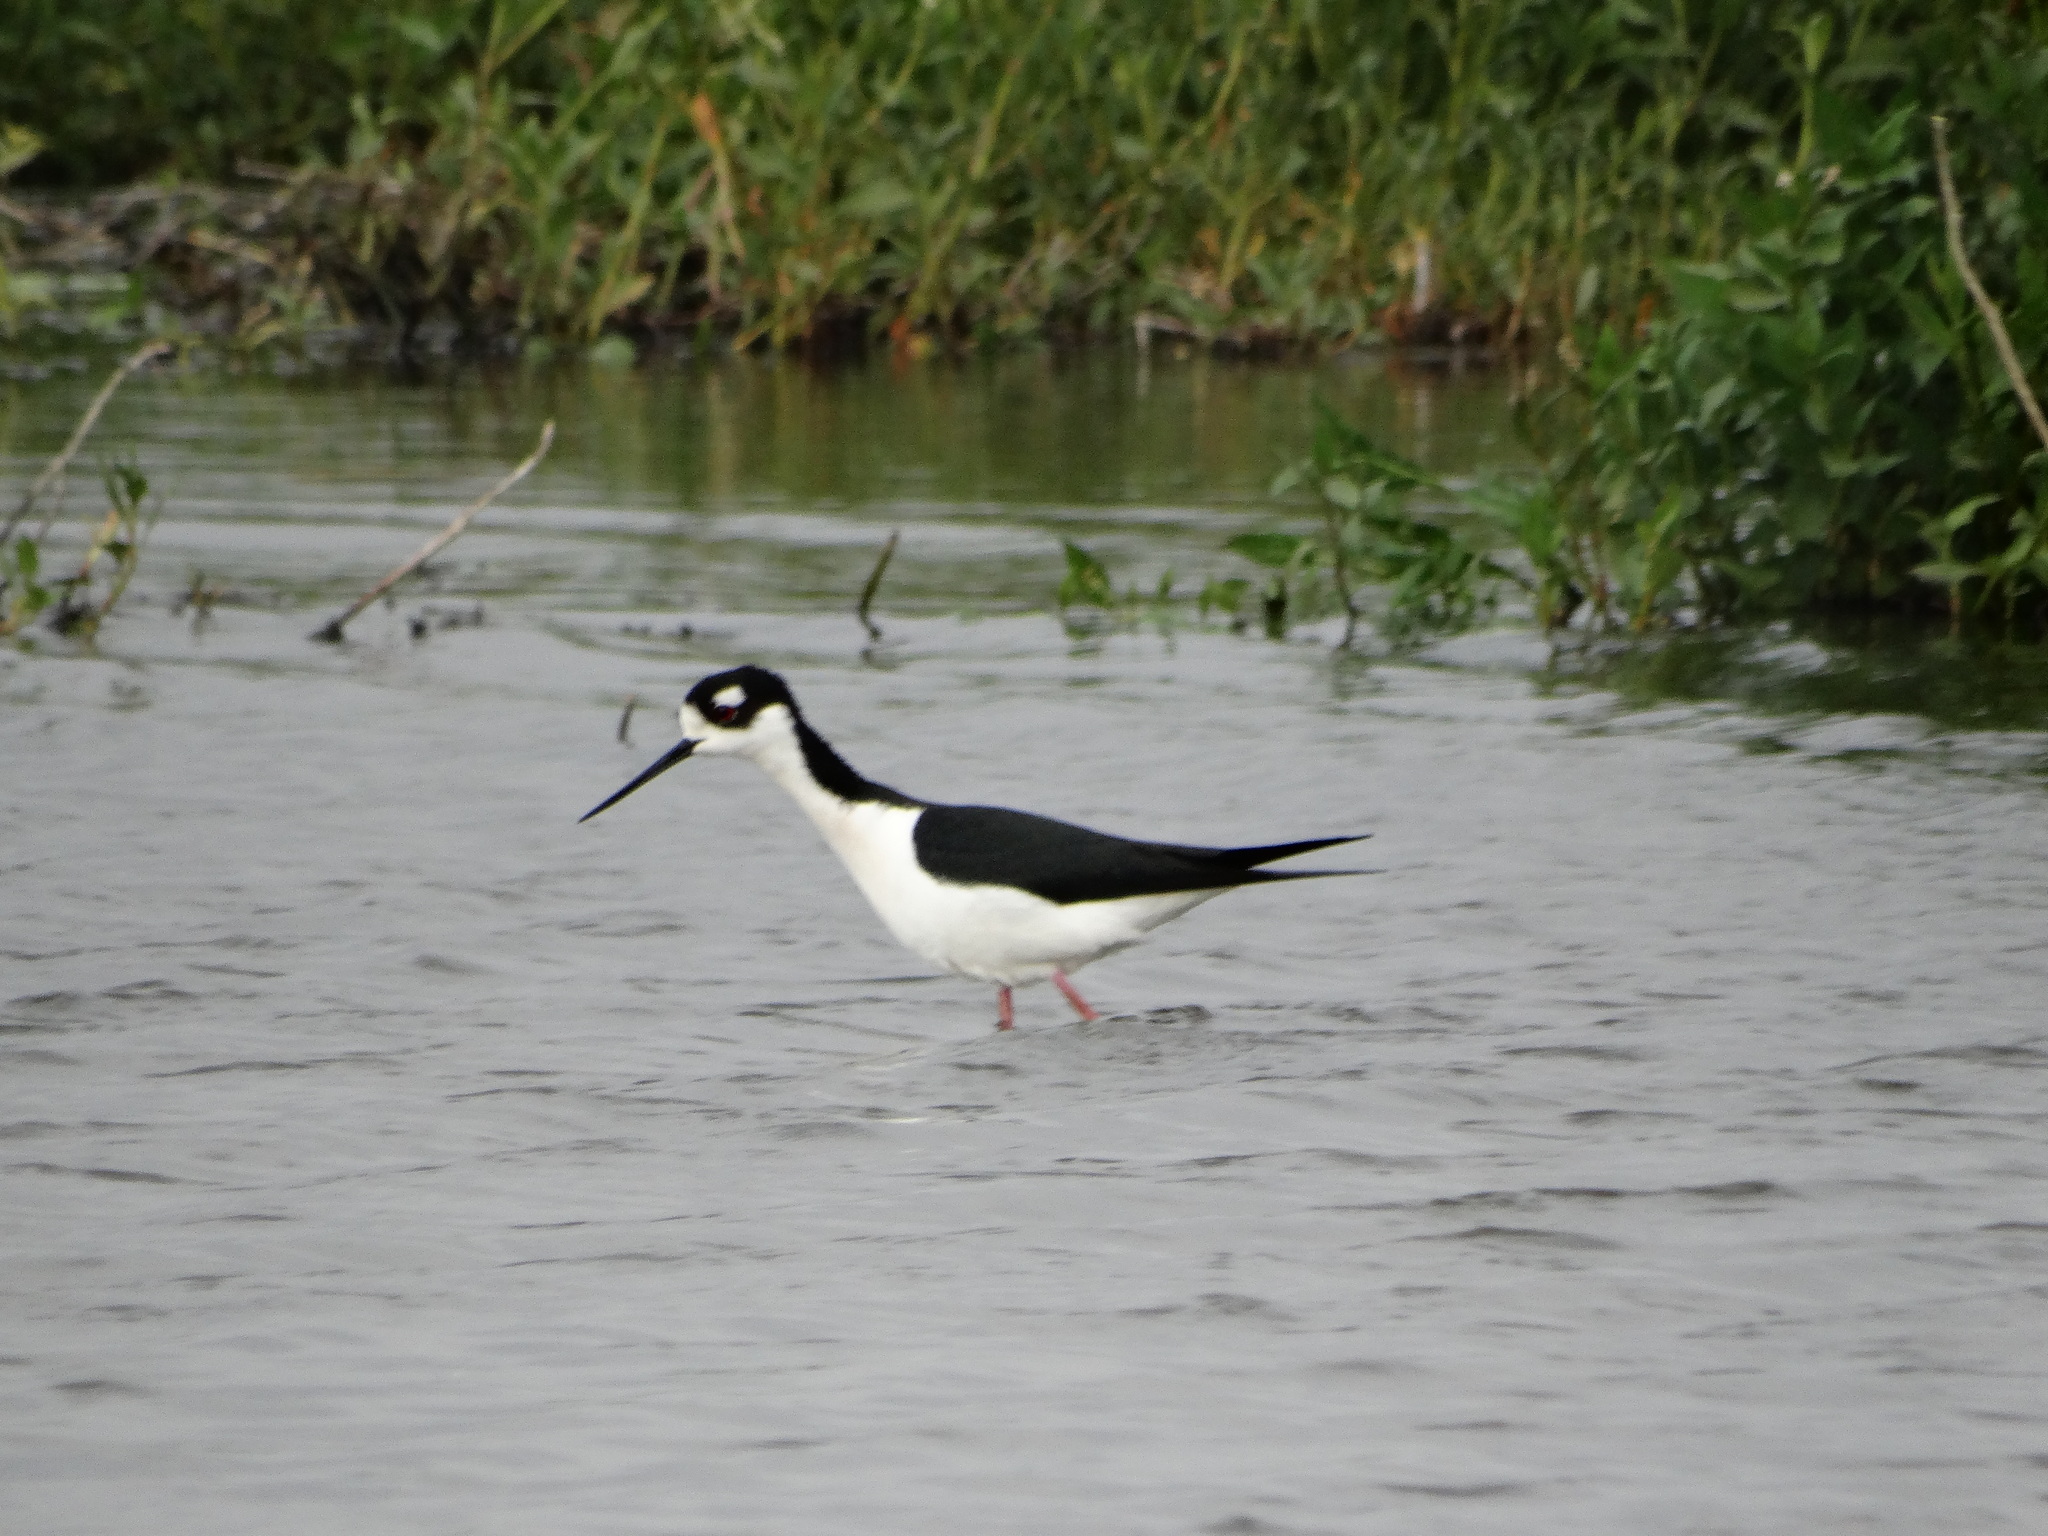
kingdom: Animalia
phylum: Chordata
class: Aves
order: Charadriiformes
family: Recurvirostridae
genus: Himantopus
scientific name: Himantopus mexicanus
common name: Black-necked stilt
